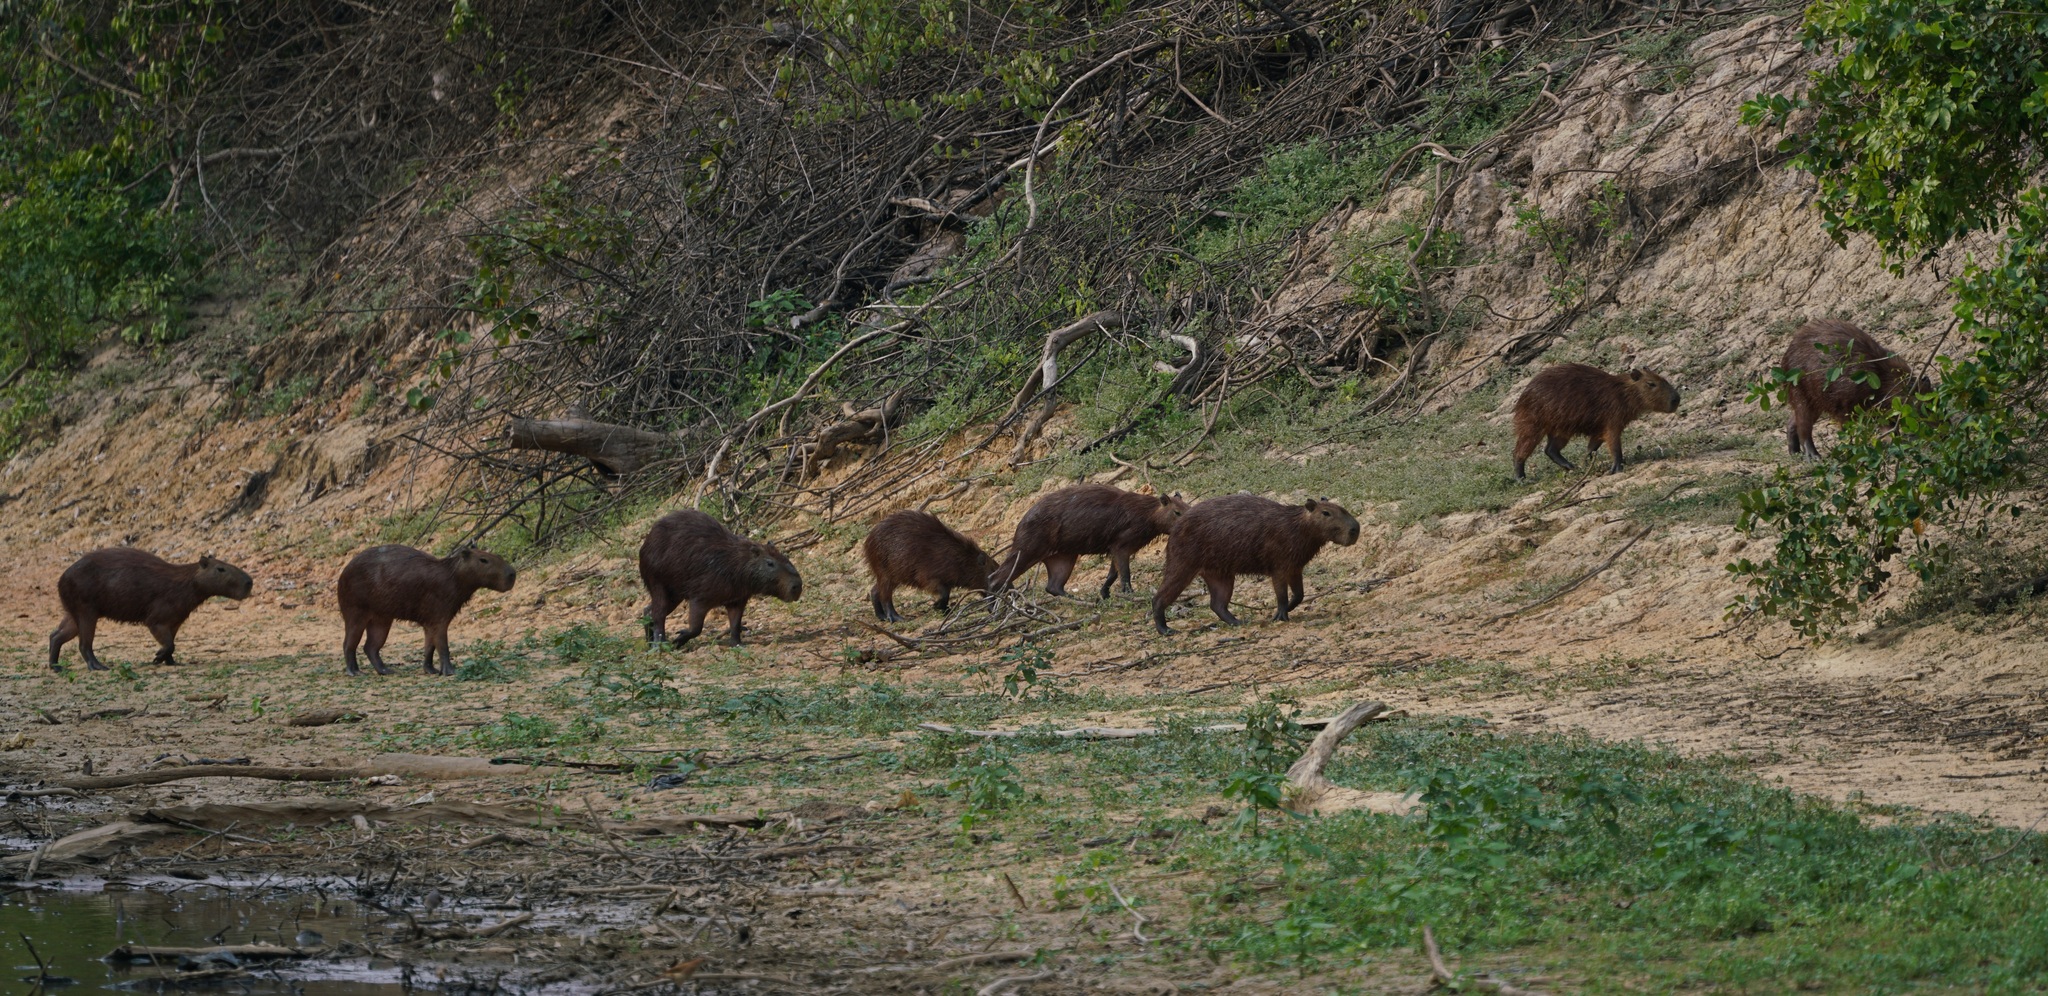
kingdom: Animalia
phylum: Chordata
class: Mammalia
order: Rodentia
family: Caviidae
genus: Hydrochoerus
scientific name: Hydrochoerus hydrochaeris
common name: Capybara
